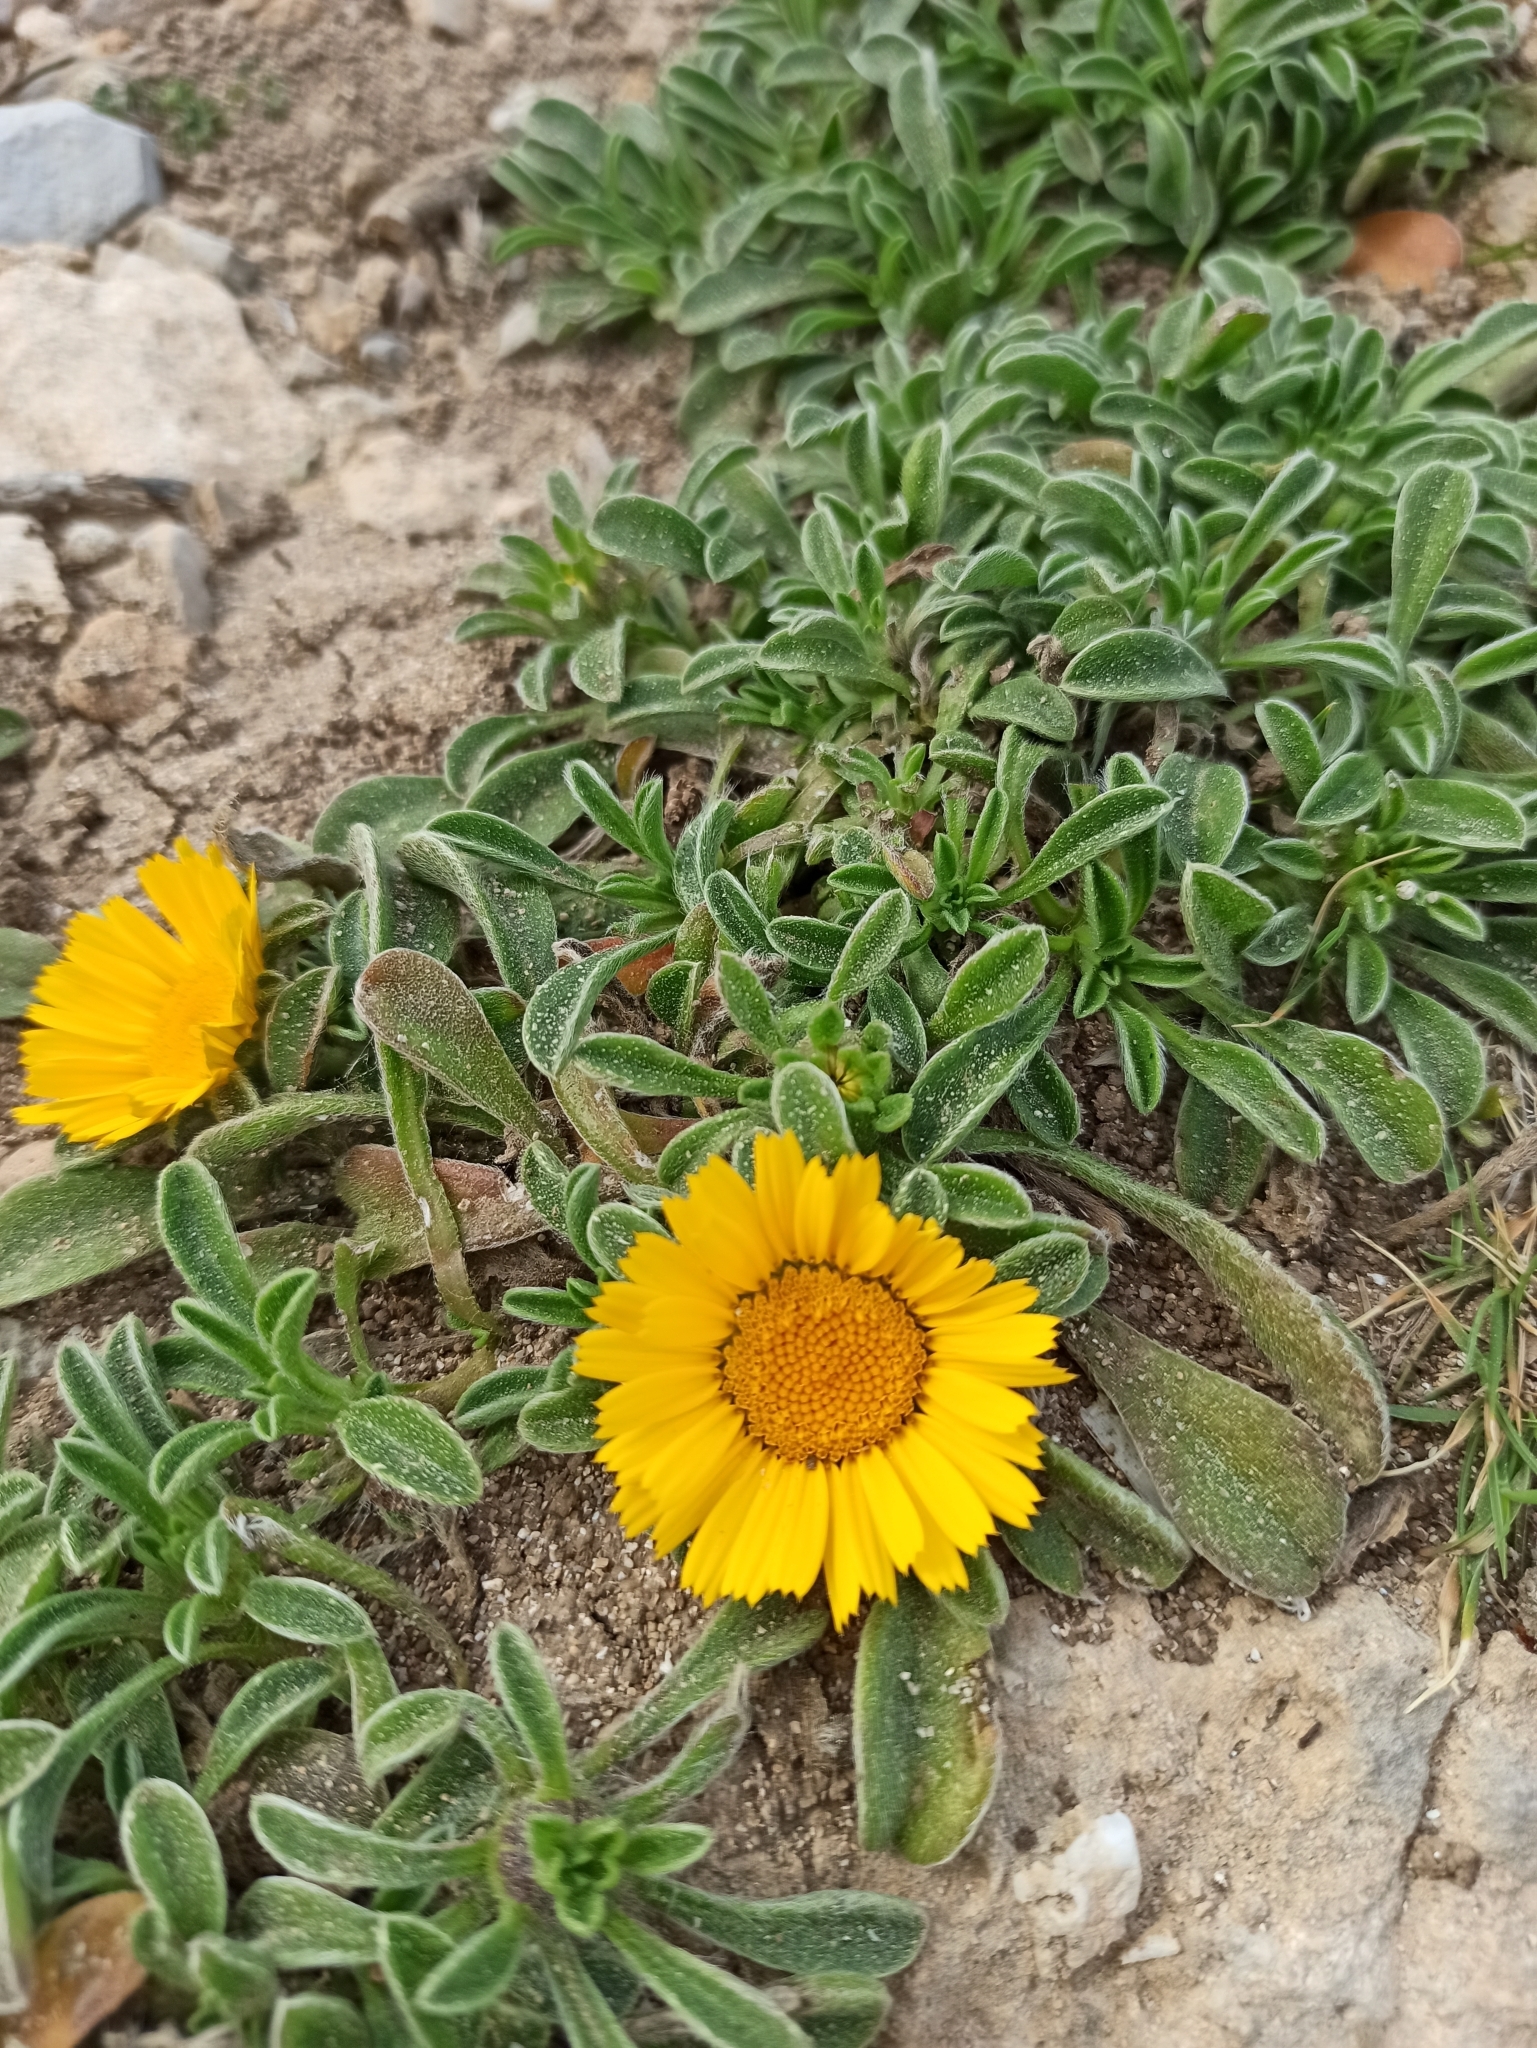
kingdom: Plantae
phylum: Tracheophyta
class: Magnoliopsida
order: Asterales
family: Asteraceae
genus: Pallenis
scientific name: Pallenis maritima
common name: Golden coin daisy
